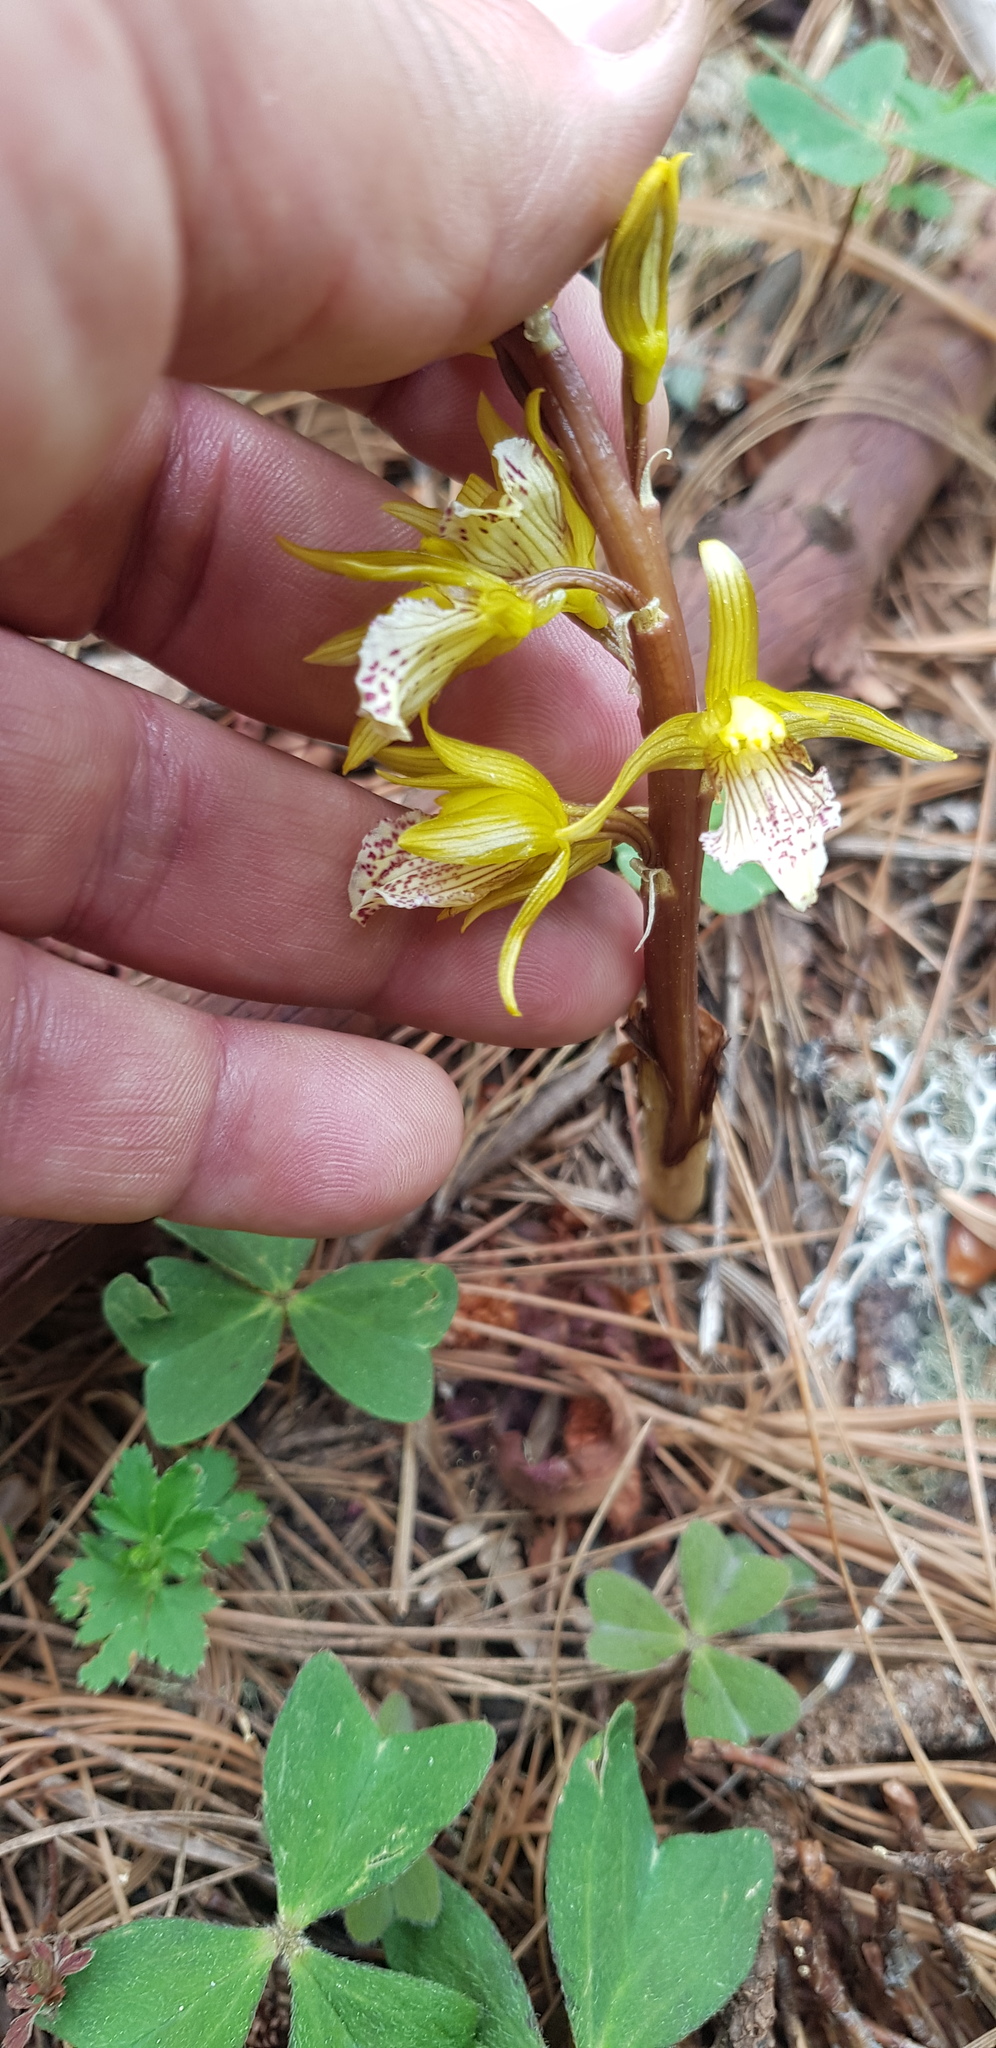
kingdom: Plantae
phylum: Tracheophyta
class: Liliopsida
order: Asparagales
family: Orchidaceae
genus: Corallorhiza
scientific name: Corallorhiza macrantha
